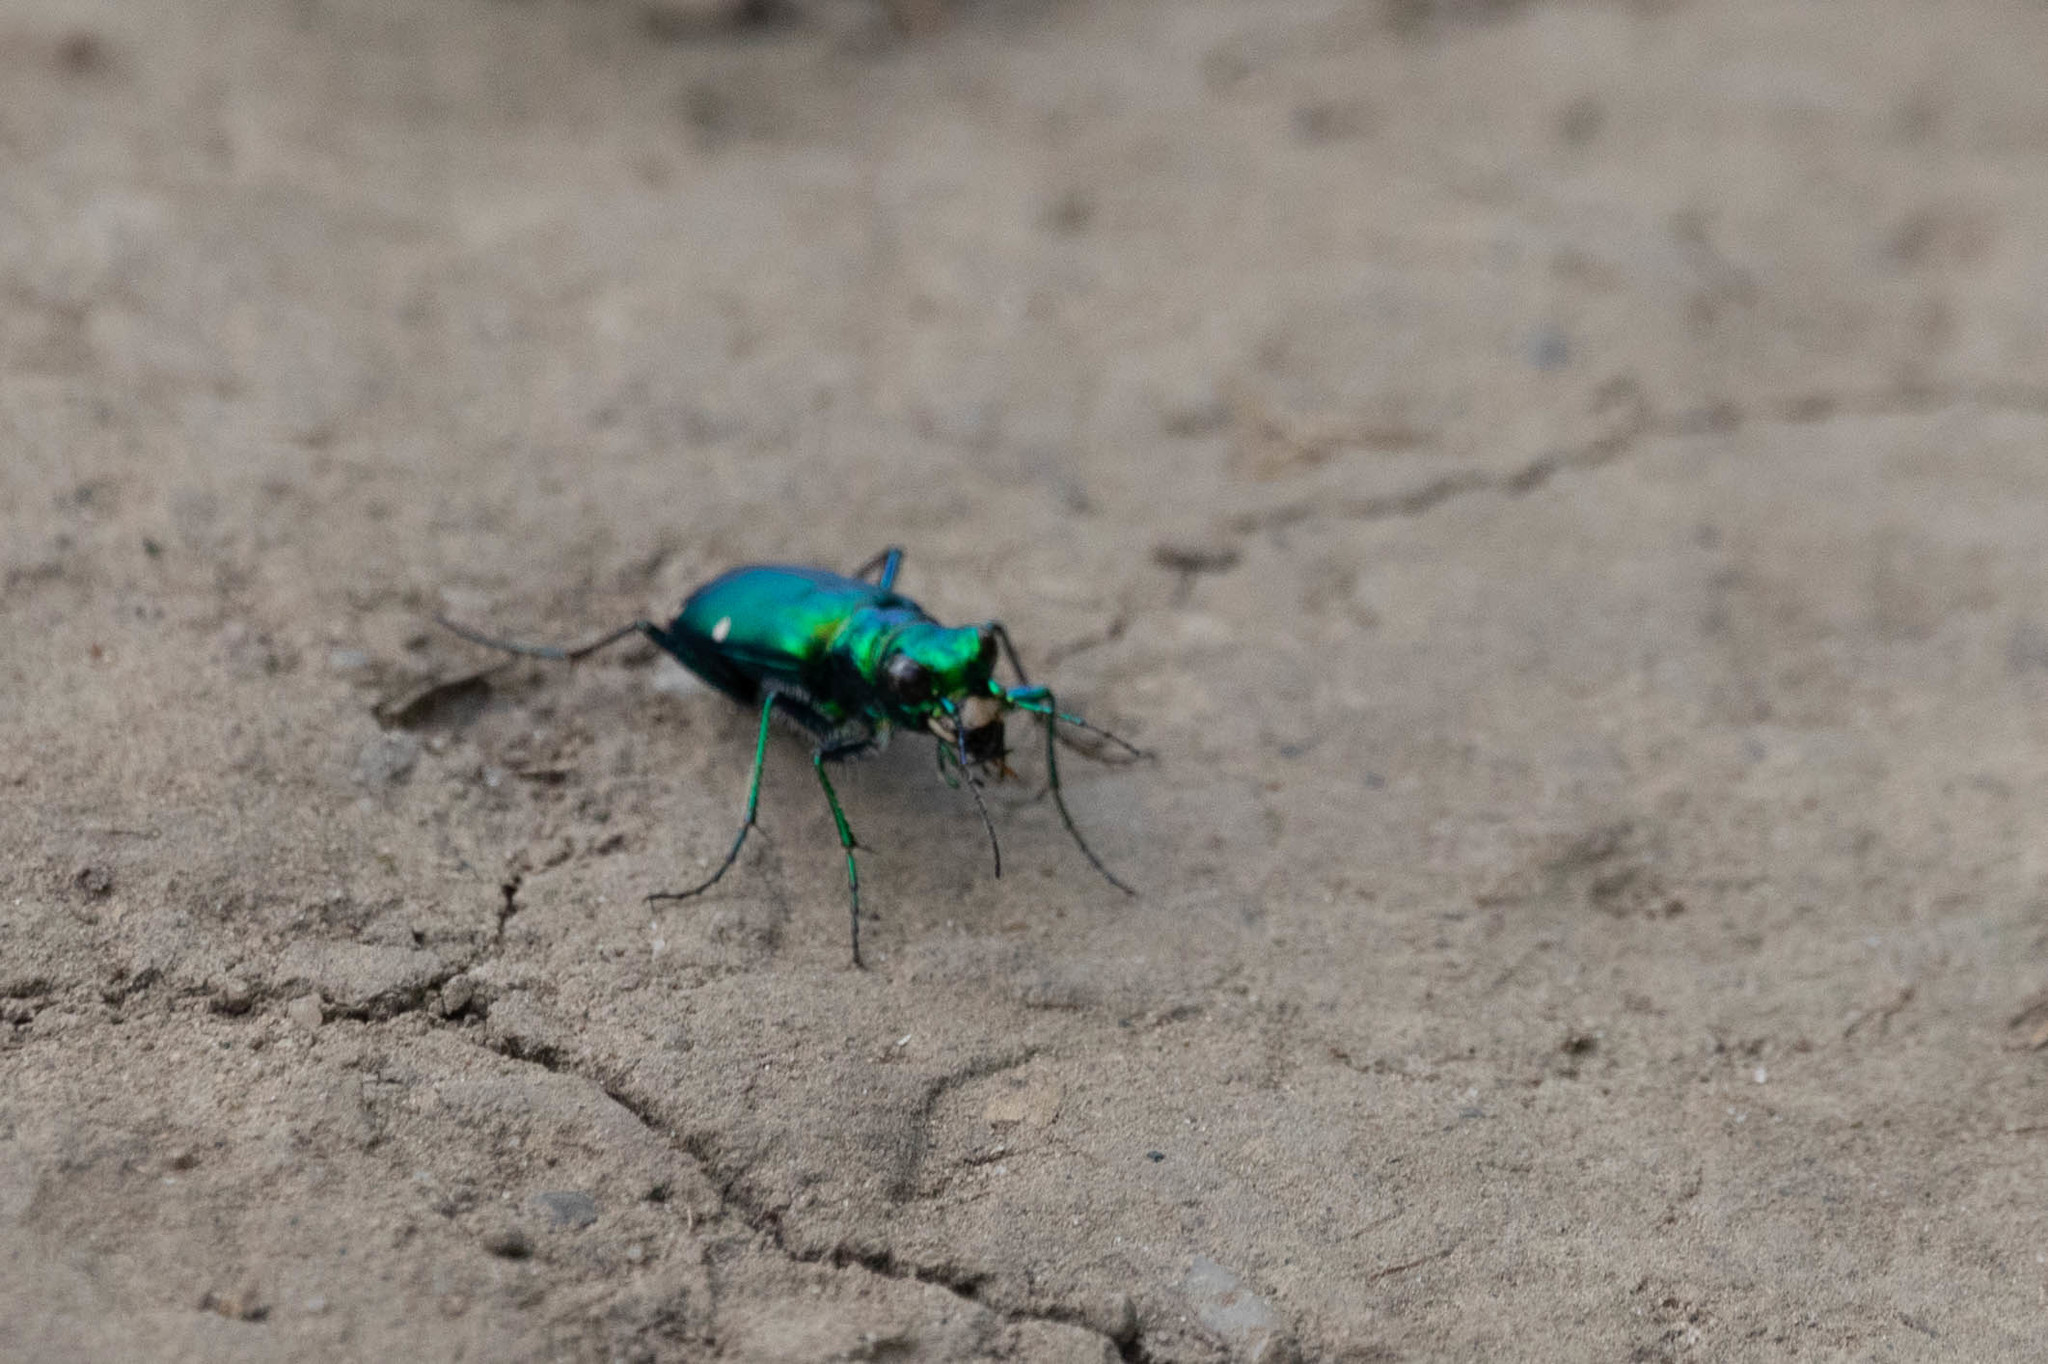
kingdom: Animalia
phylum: Arthropoda
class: Insecta
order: Coleoptera
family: Carabidae
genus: Cicindela
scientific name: Cicindela sexguttata
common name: Six-spotted tiger beetle
